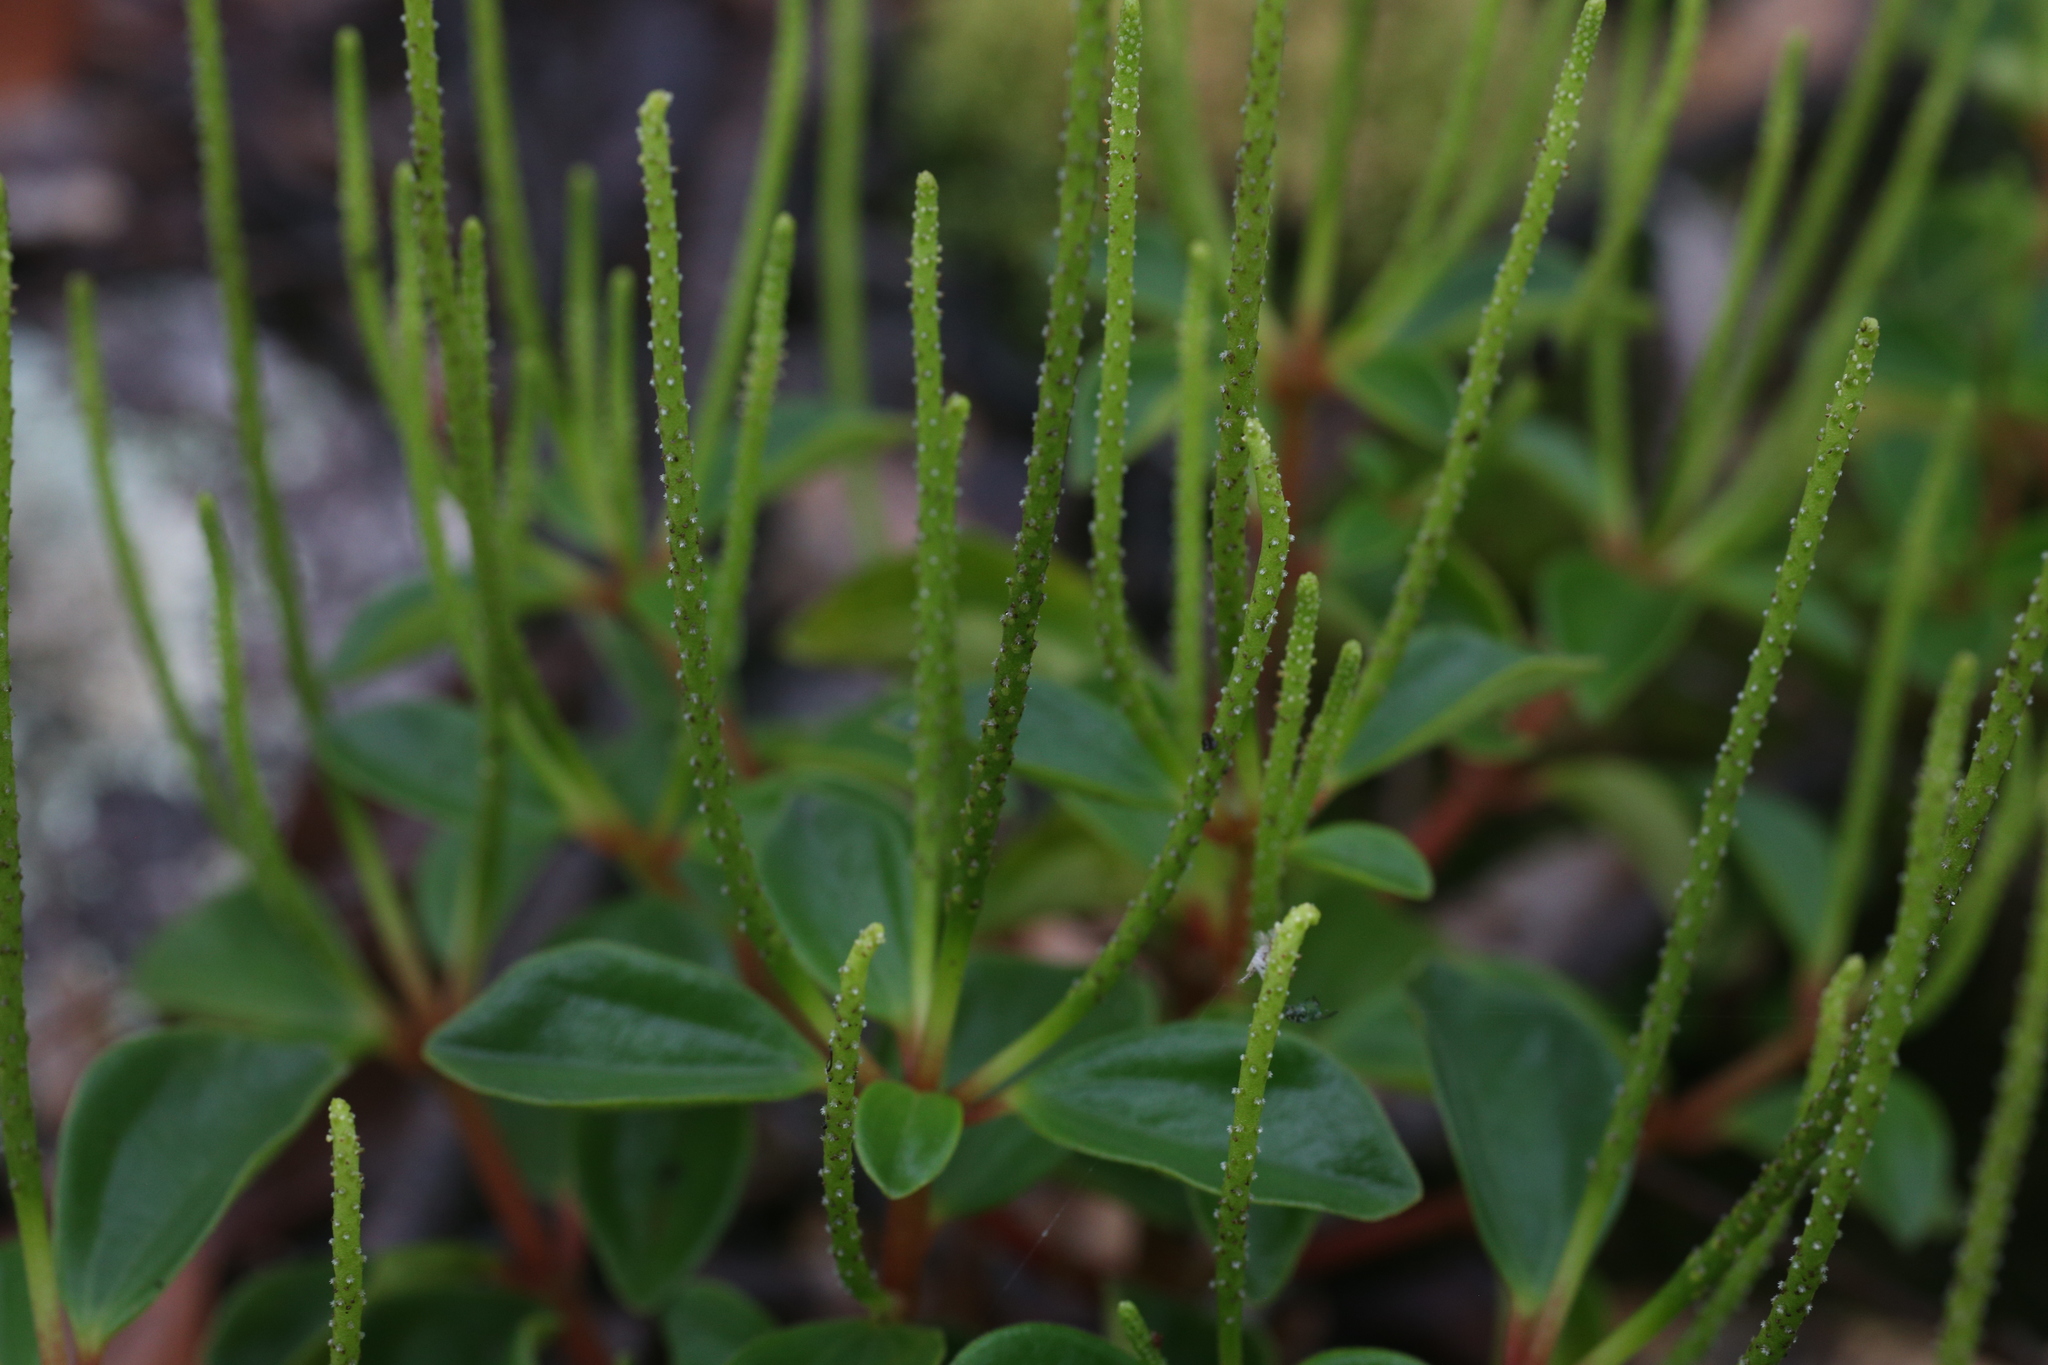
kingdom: Plantae
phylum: Tracheophyta
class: Magnoliopsida
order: Piperales
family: Piperaceae
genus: Peperomia
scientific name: Peperomia leptostachya
